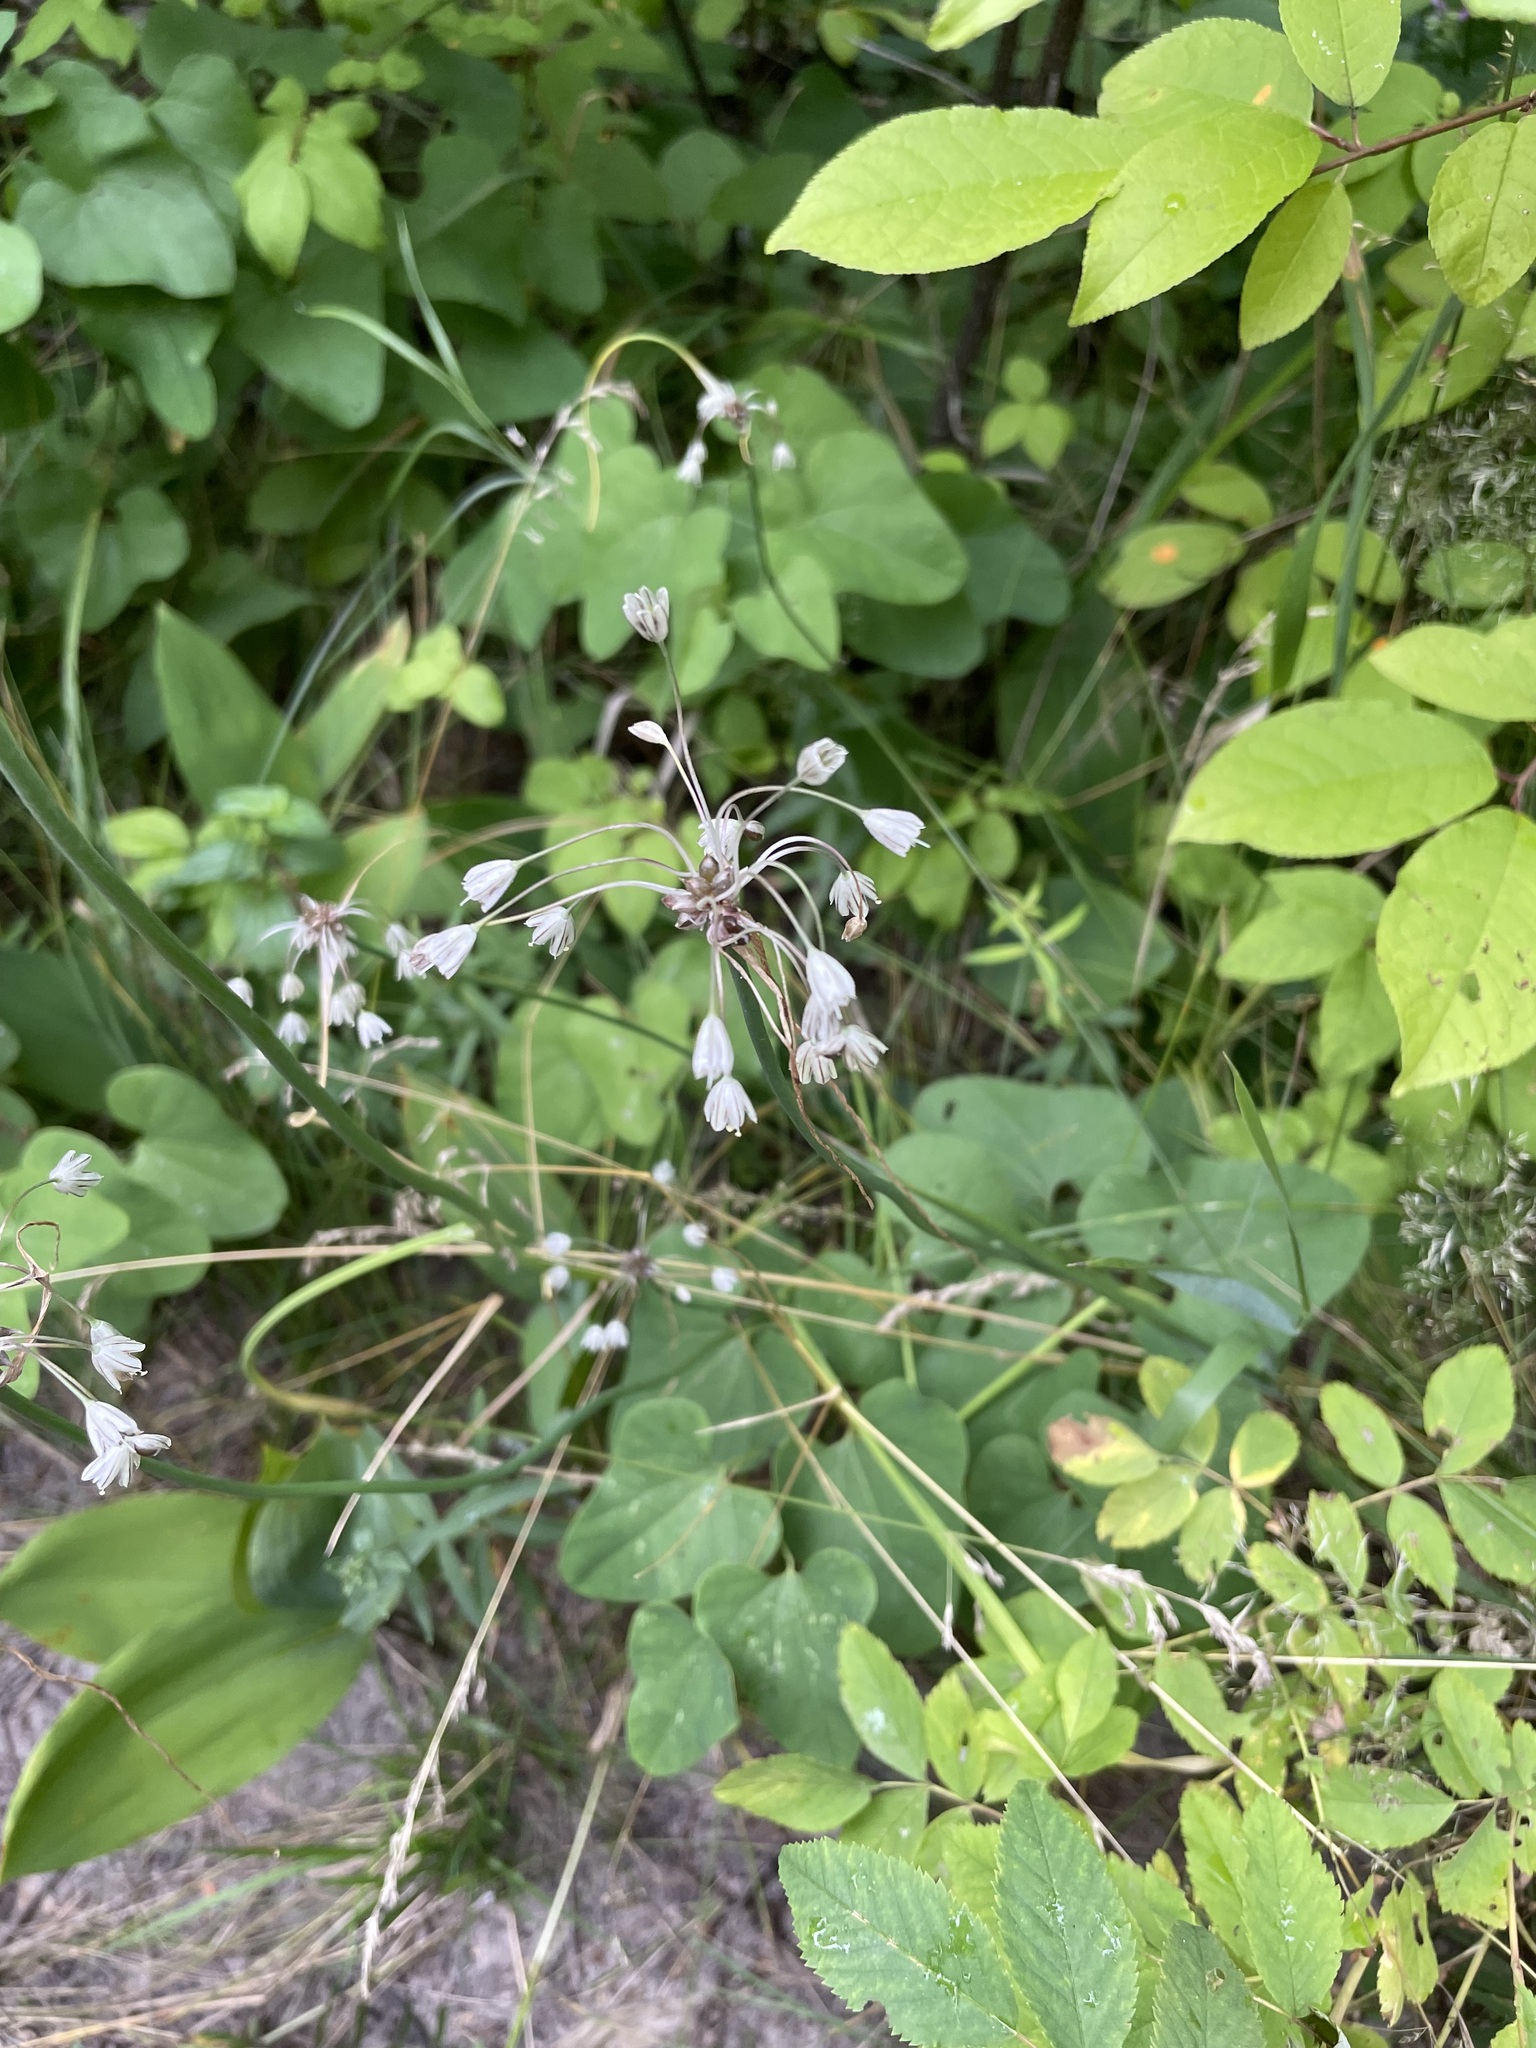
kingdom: Plantae
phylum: Tracheophyta
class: Liliopsida
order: Asparagales
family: Amaryllidaceae
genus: Allium
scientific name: Allium oleraceum
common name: Field garlic
